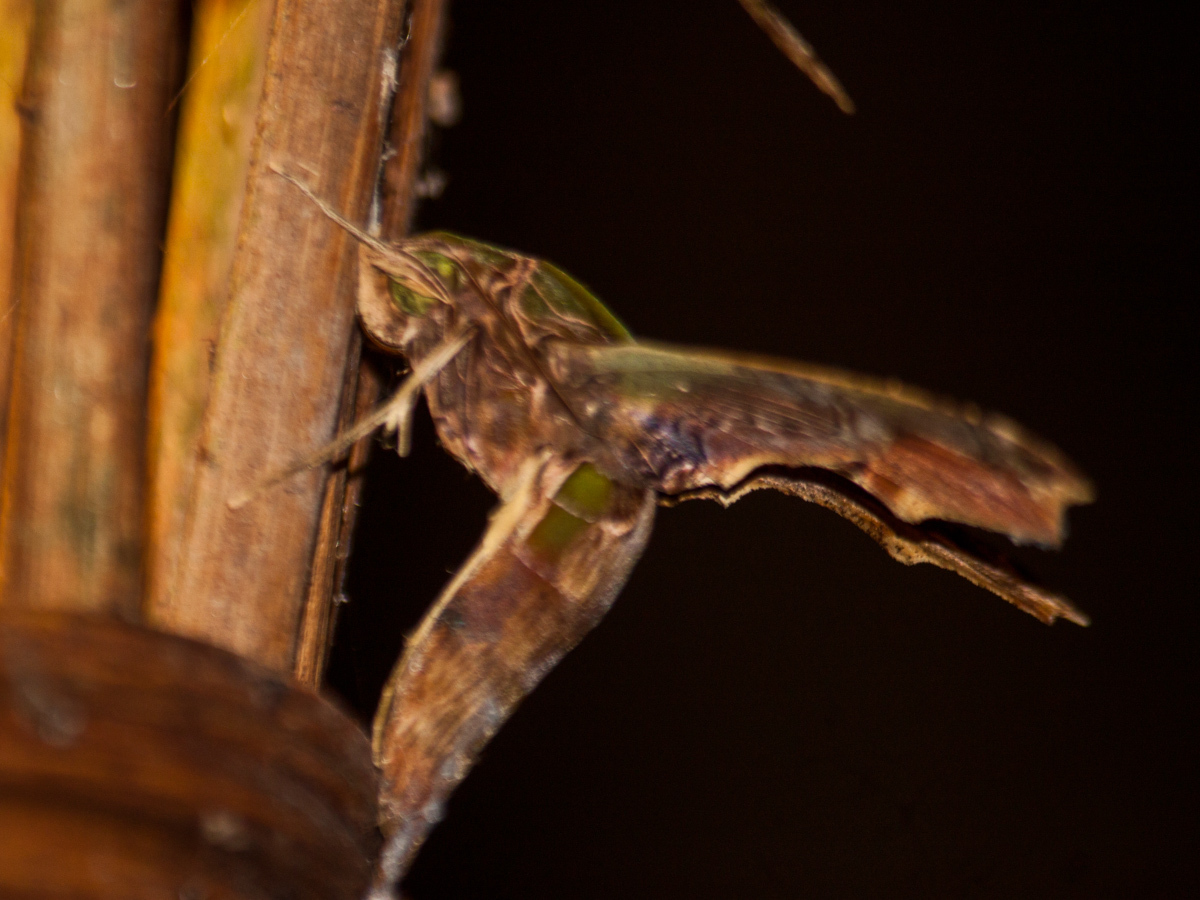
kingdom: Animalia
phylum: Arthropoda
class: Insecta
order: Lepidoptera
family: Sphingidae
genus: Eupanacra
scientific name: Eupanacra busiris
